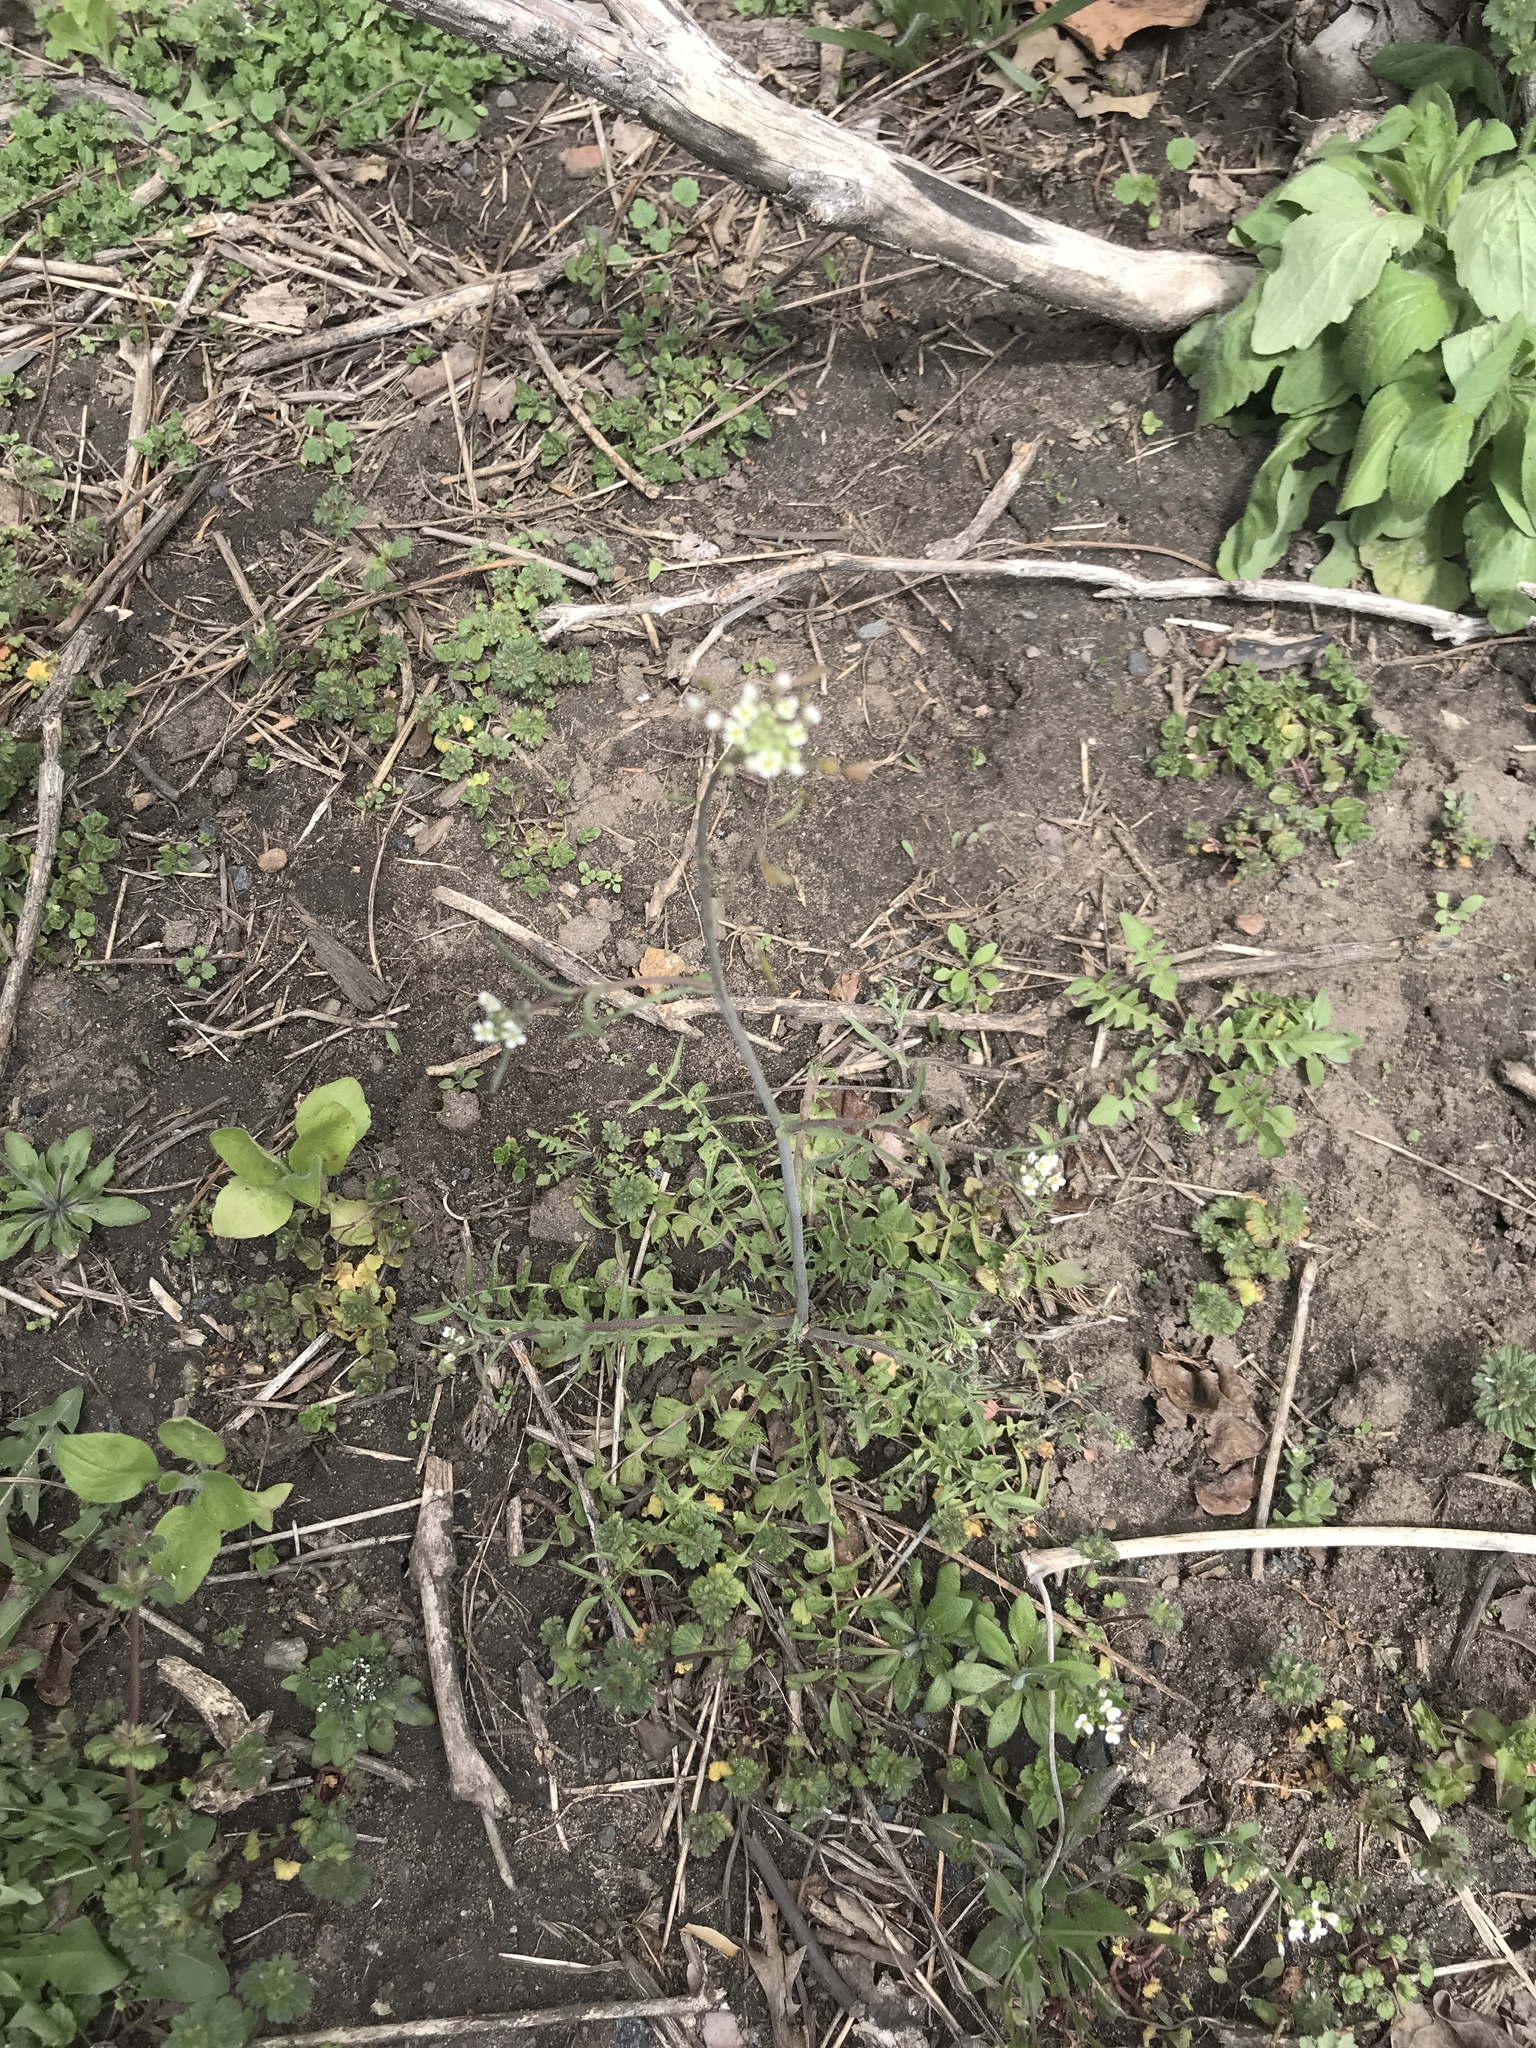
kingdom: Plantae
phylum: Tracheophyta
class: Magnoliopsida
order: Brassicales
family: Brassicaceae
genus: Capsella
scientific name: Capsella bursa-pastoris
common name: Shepherd's purse
